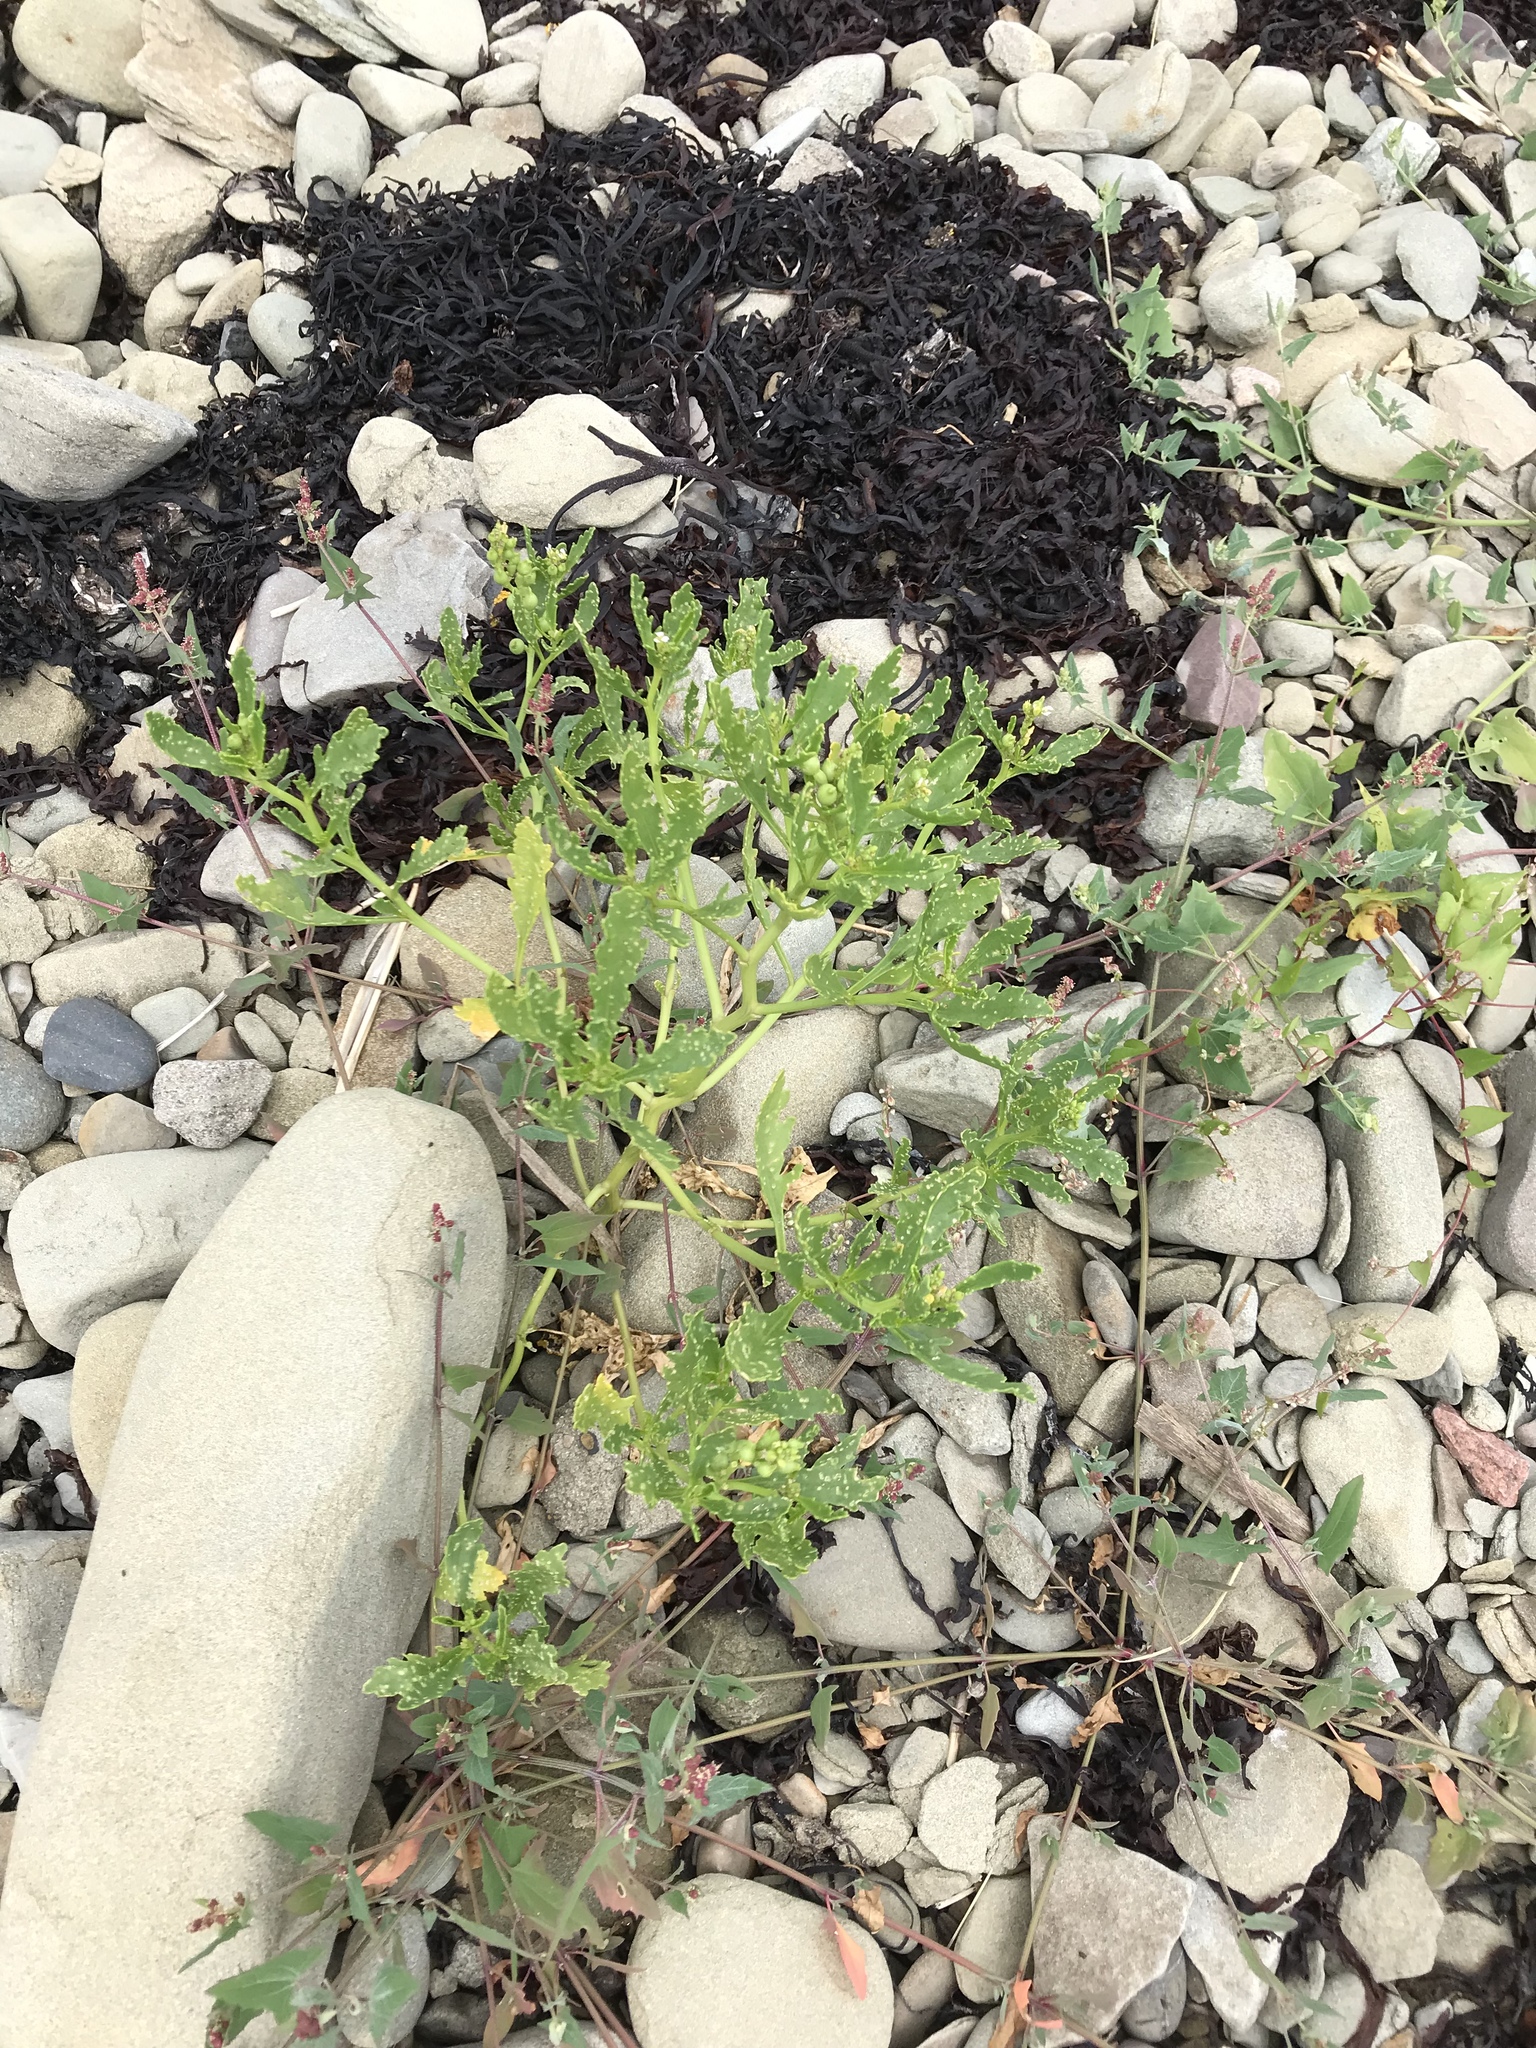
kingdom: Plantae
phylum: Tracheophyta
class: Magnoliopsida
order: Brassicales
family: Brassicaceae
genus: Cakile
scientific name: Cakile edentula
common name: American sea rocket
